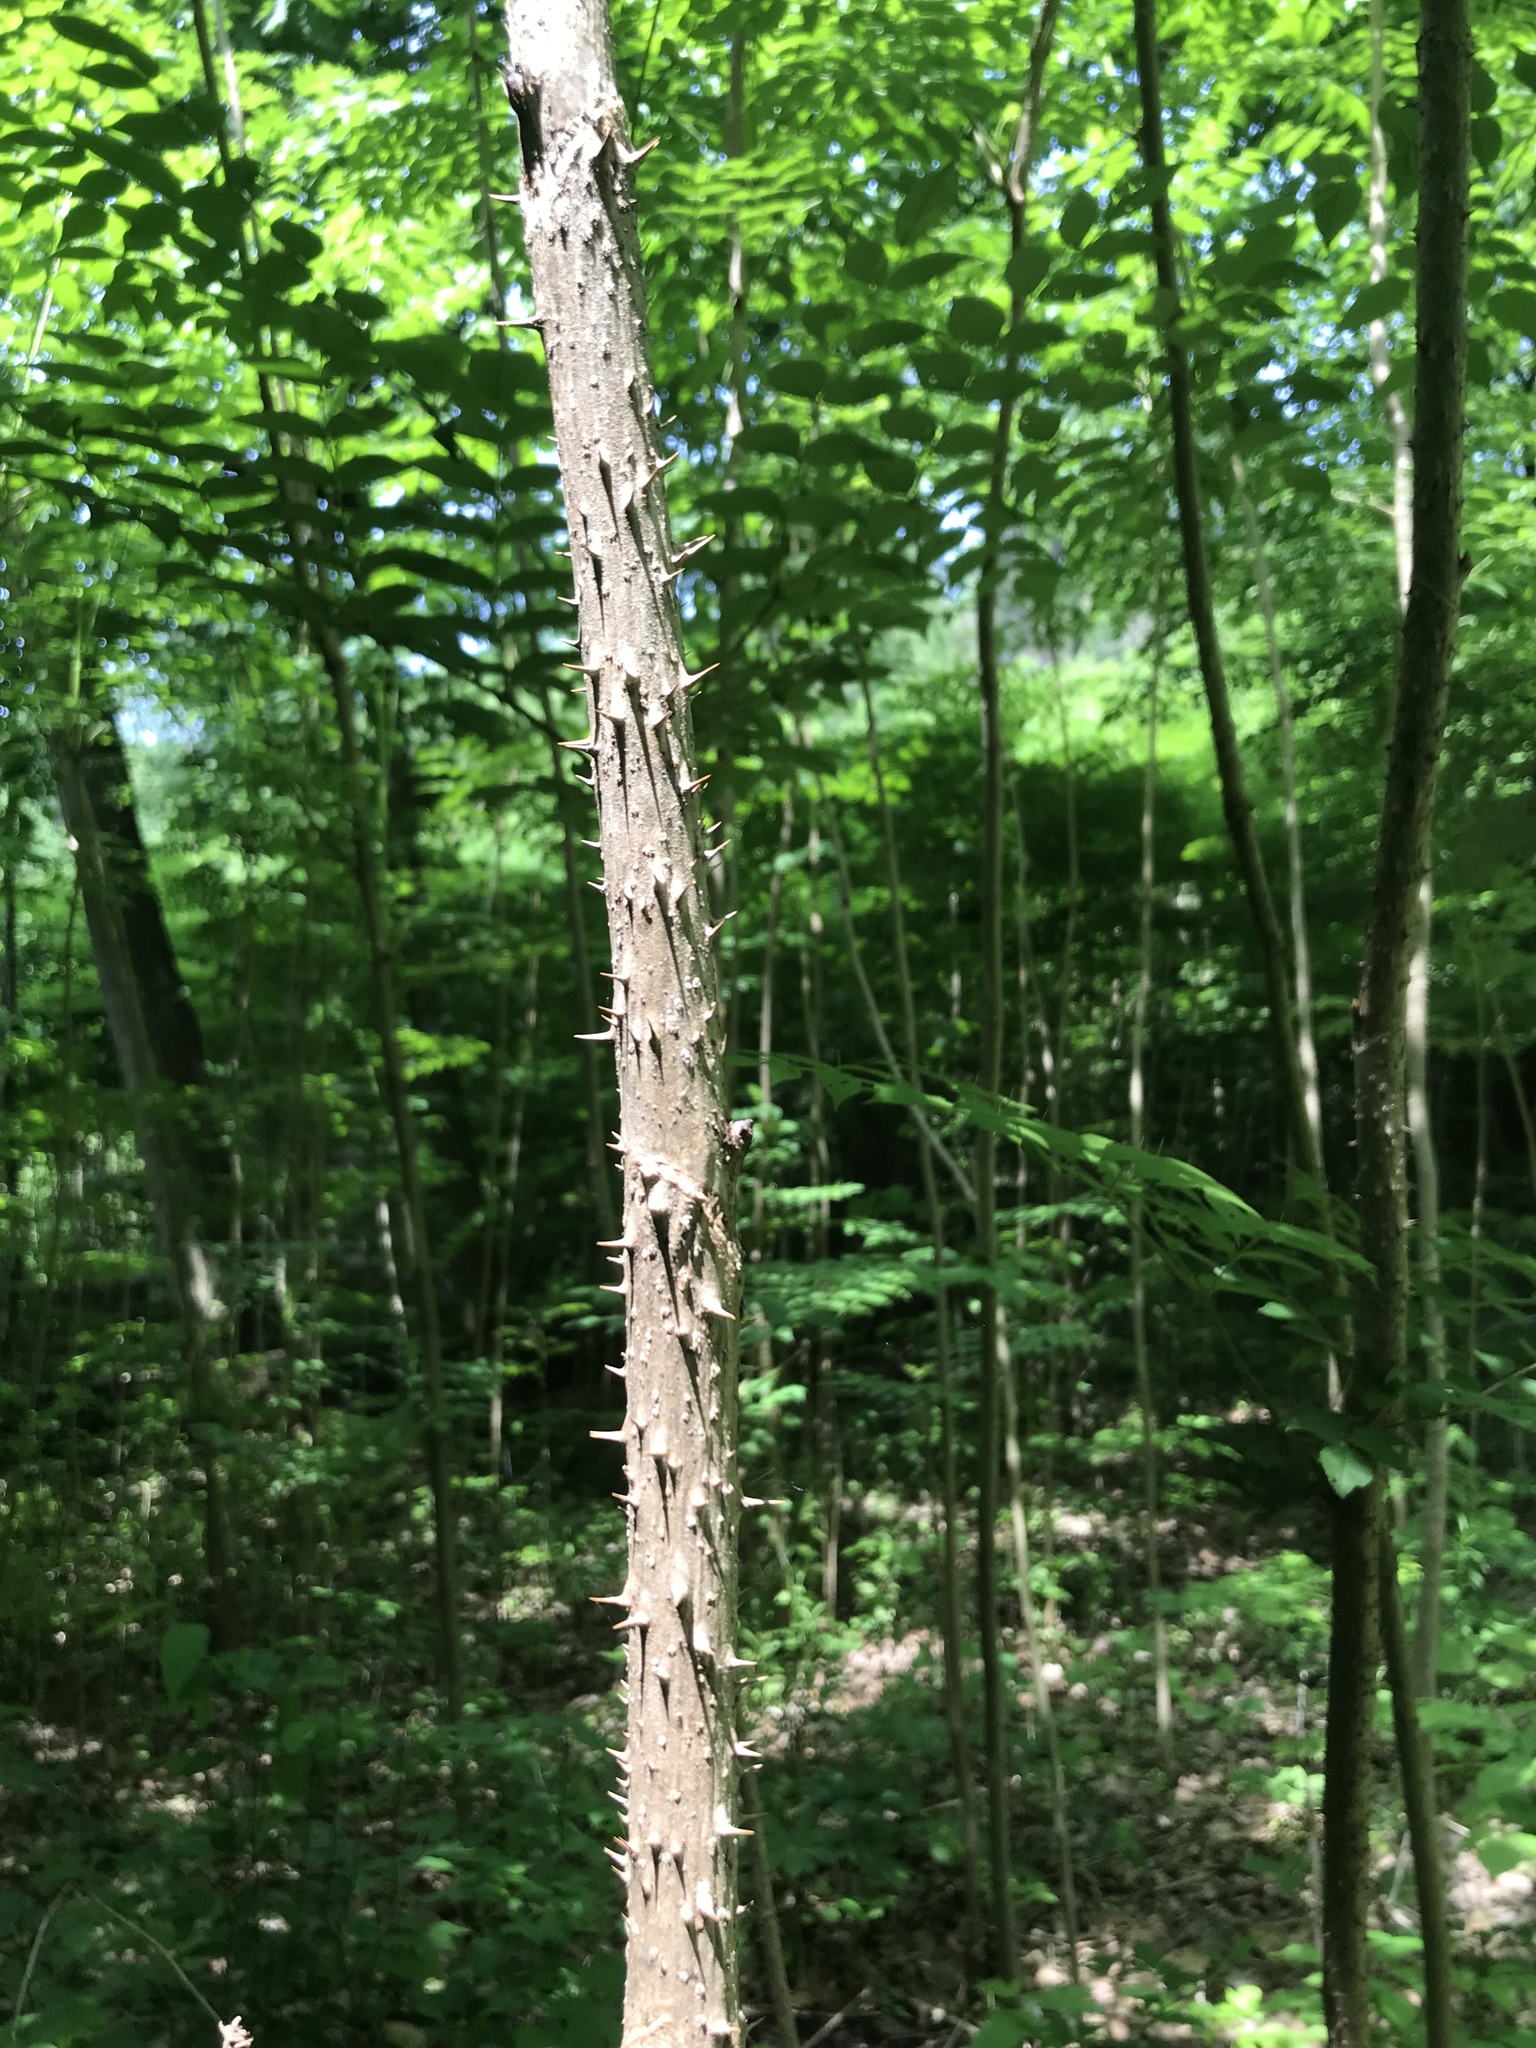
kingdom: Plantae
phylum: Tracheophyta
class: Magnoliopsida
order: Apiales
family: Araliaceae
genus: Aralia
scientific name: Aralia spinosa
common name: Hercules'-club
